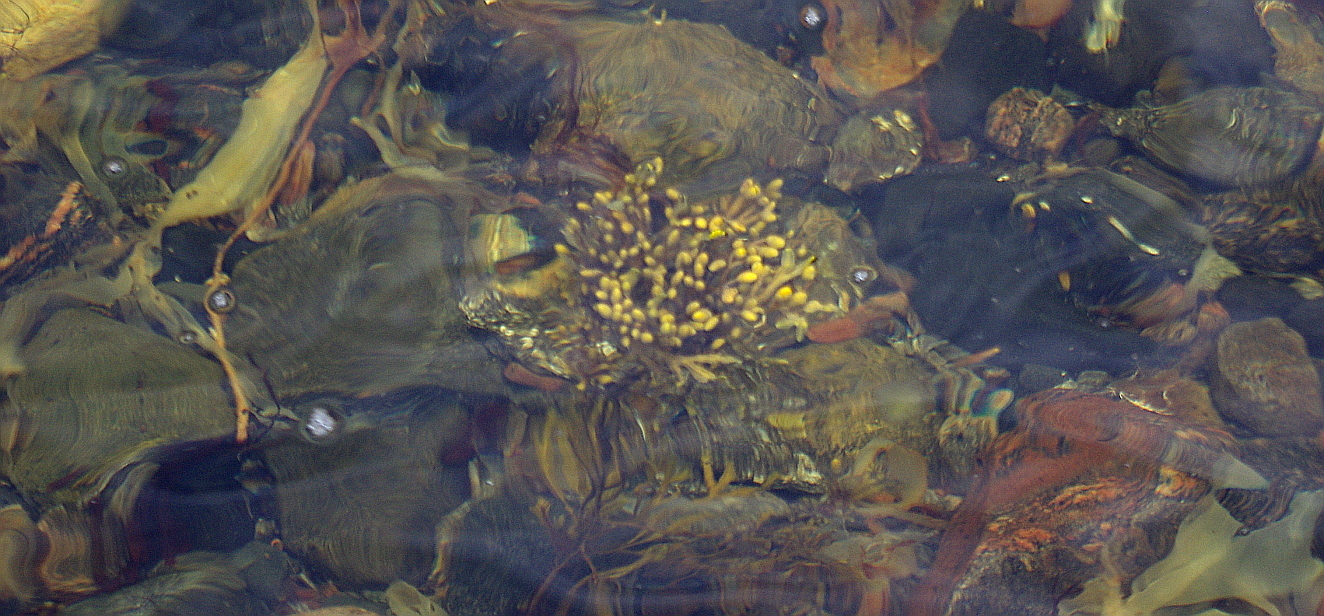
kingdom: Chromista
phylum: Ochrophyta
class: Phaeophyceae
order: Fucales
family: Fucaceae
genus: Fucus
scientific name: Fucus vesiculosus
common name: Bladder wrack
